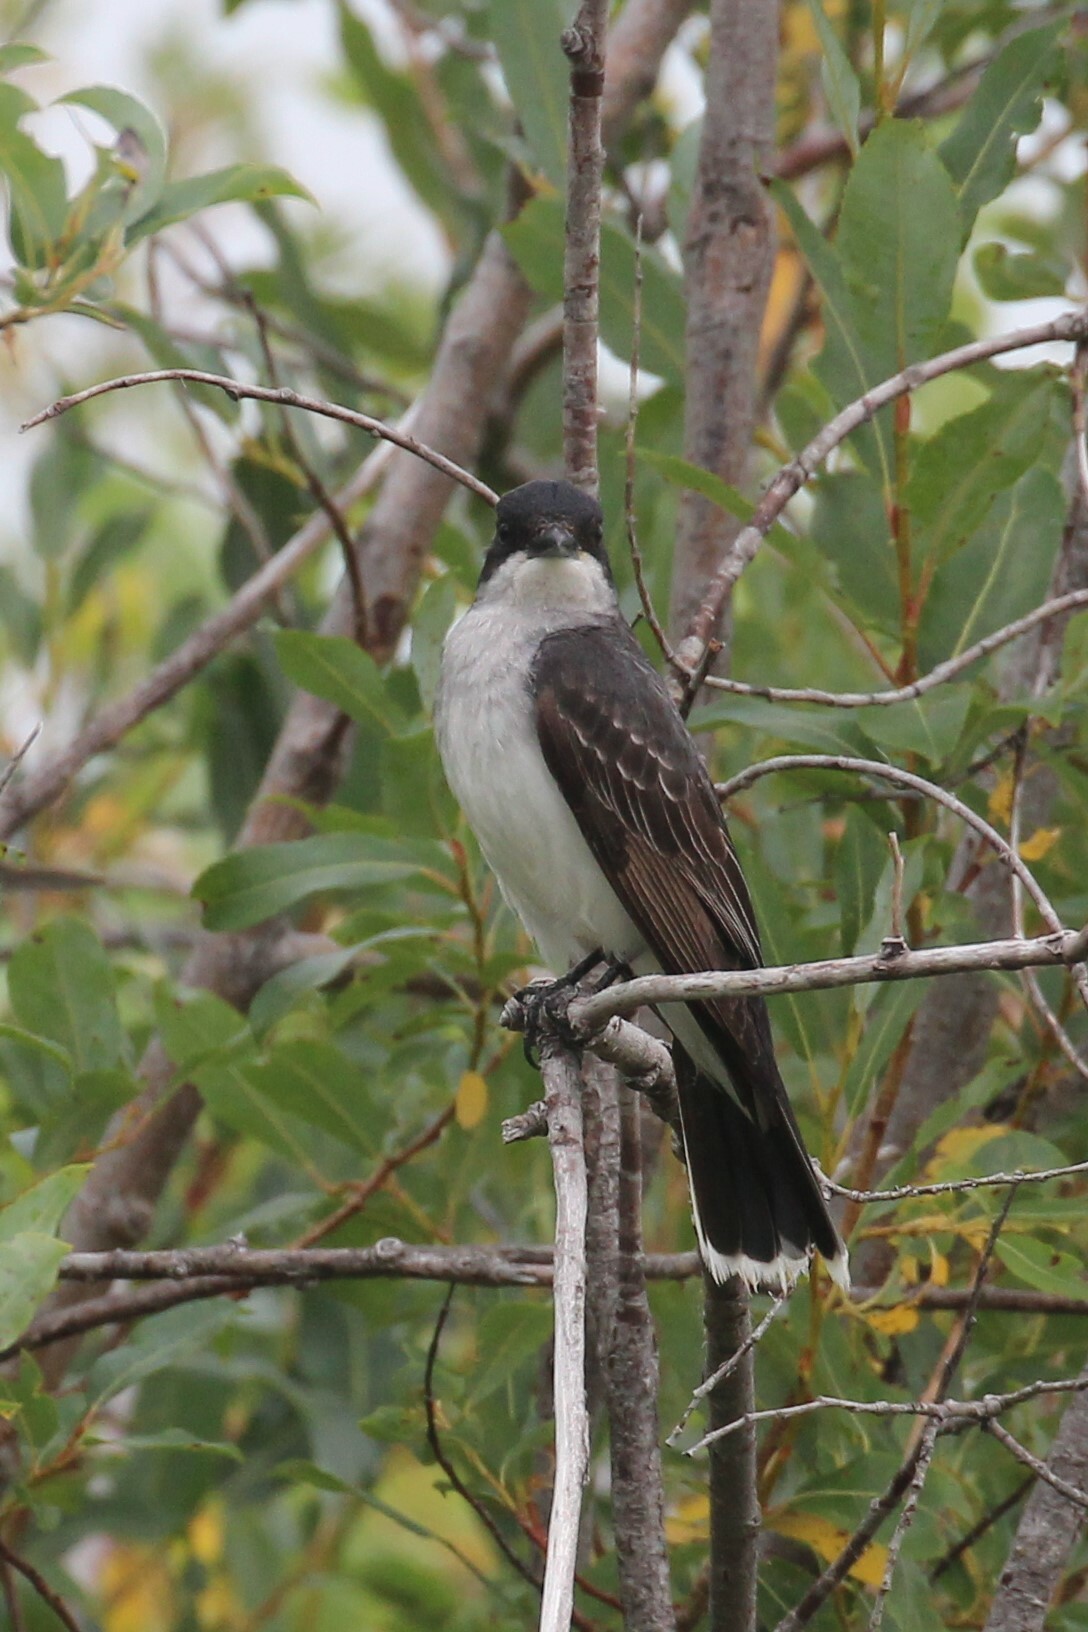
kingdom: Animalia
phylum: Chordata
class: Aves
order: Passeriformes
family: Tyrannidae
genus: Tyrannus
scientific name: Tyrannus tyrannus
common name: Eastern kingbird
